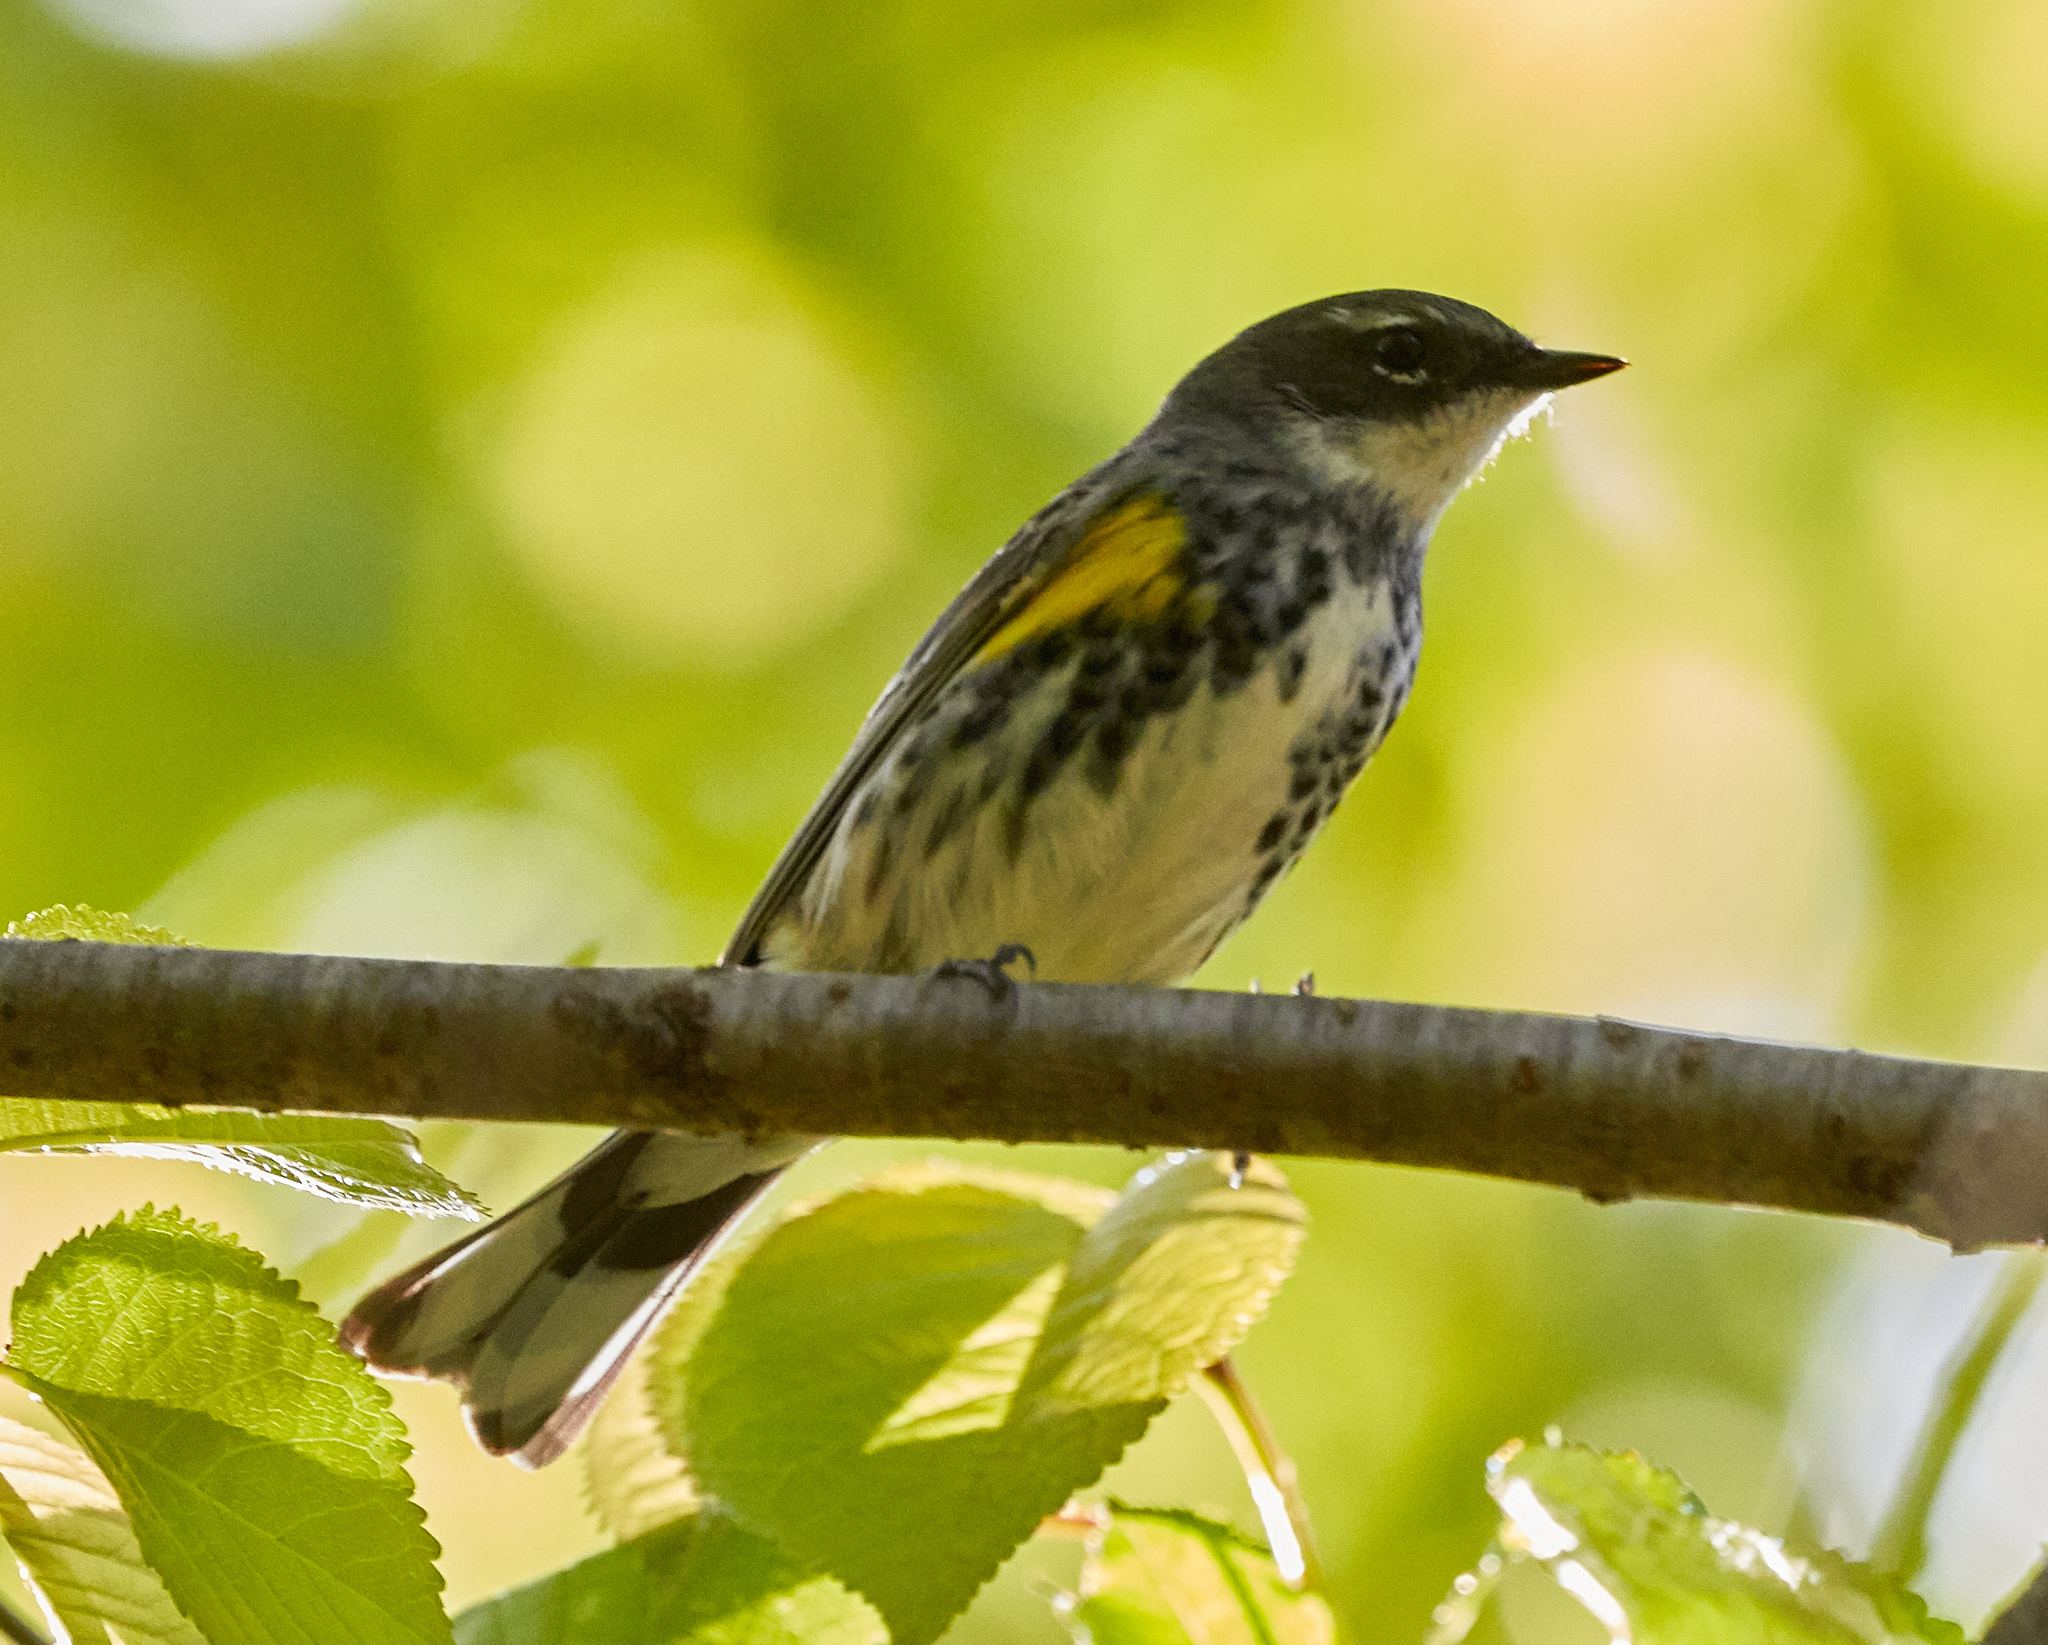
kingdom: Animalia
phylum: Chordata
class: Aves
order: Passeriformes
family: Parulidae
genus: Setophaga
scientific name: Setophaga coronata
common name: Myrtle warbler
